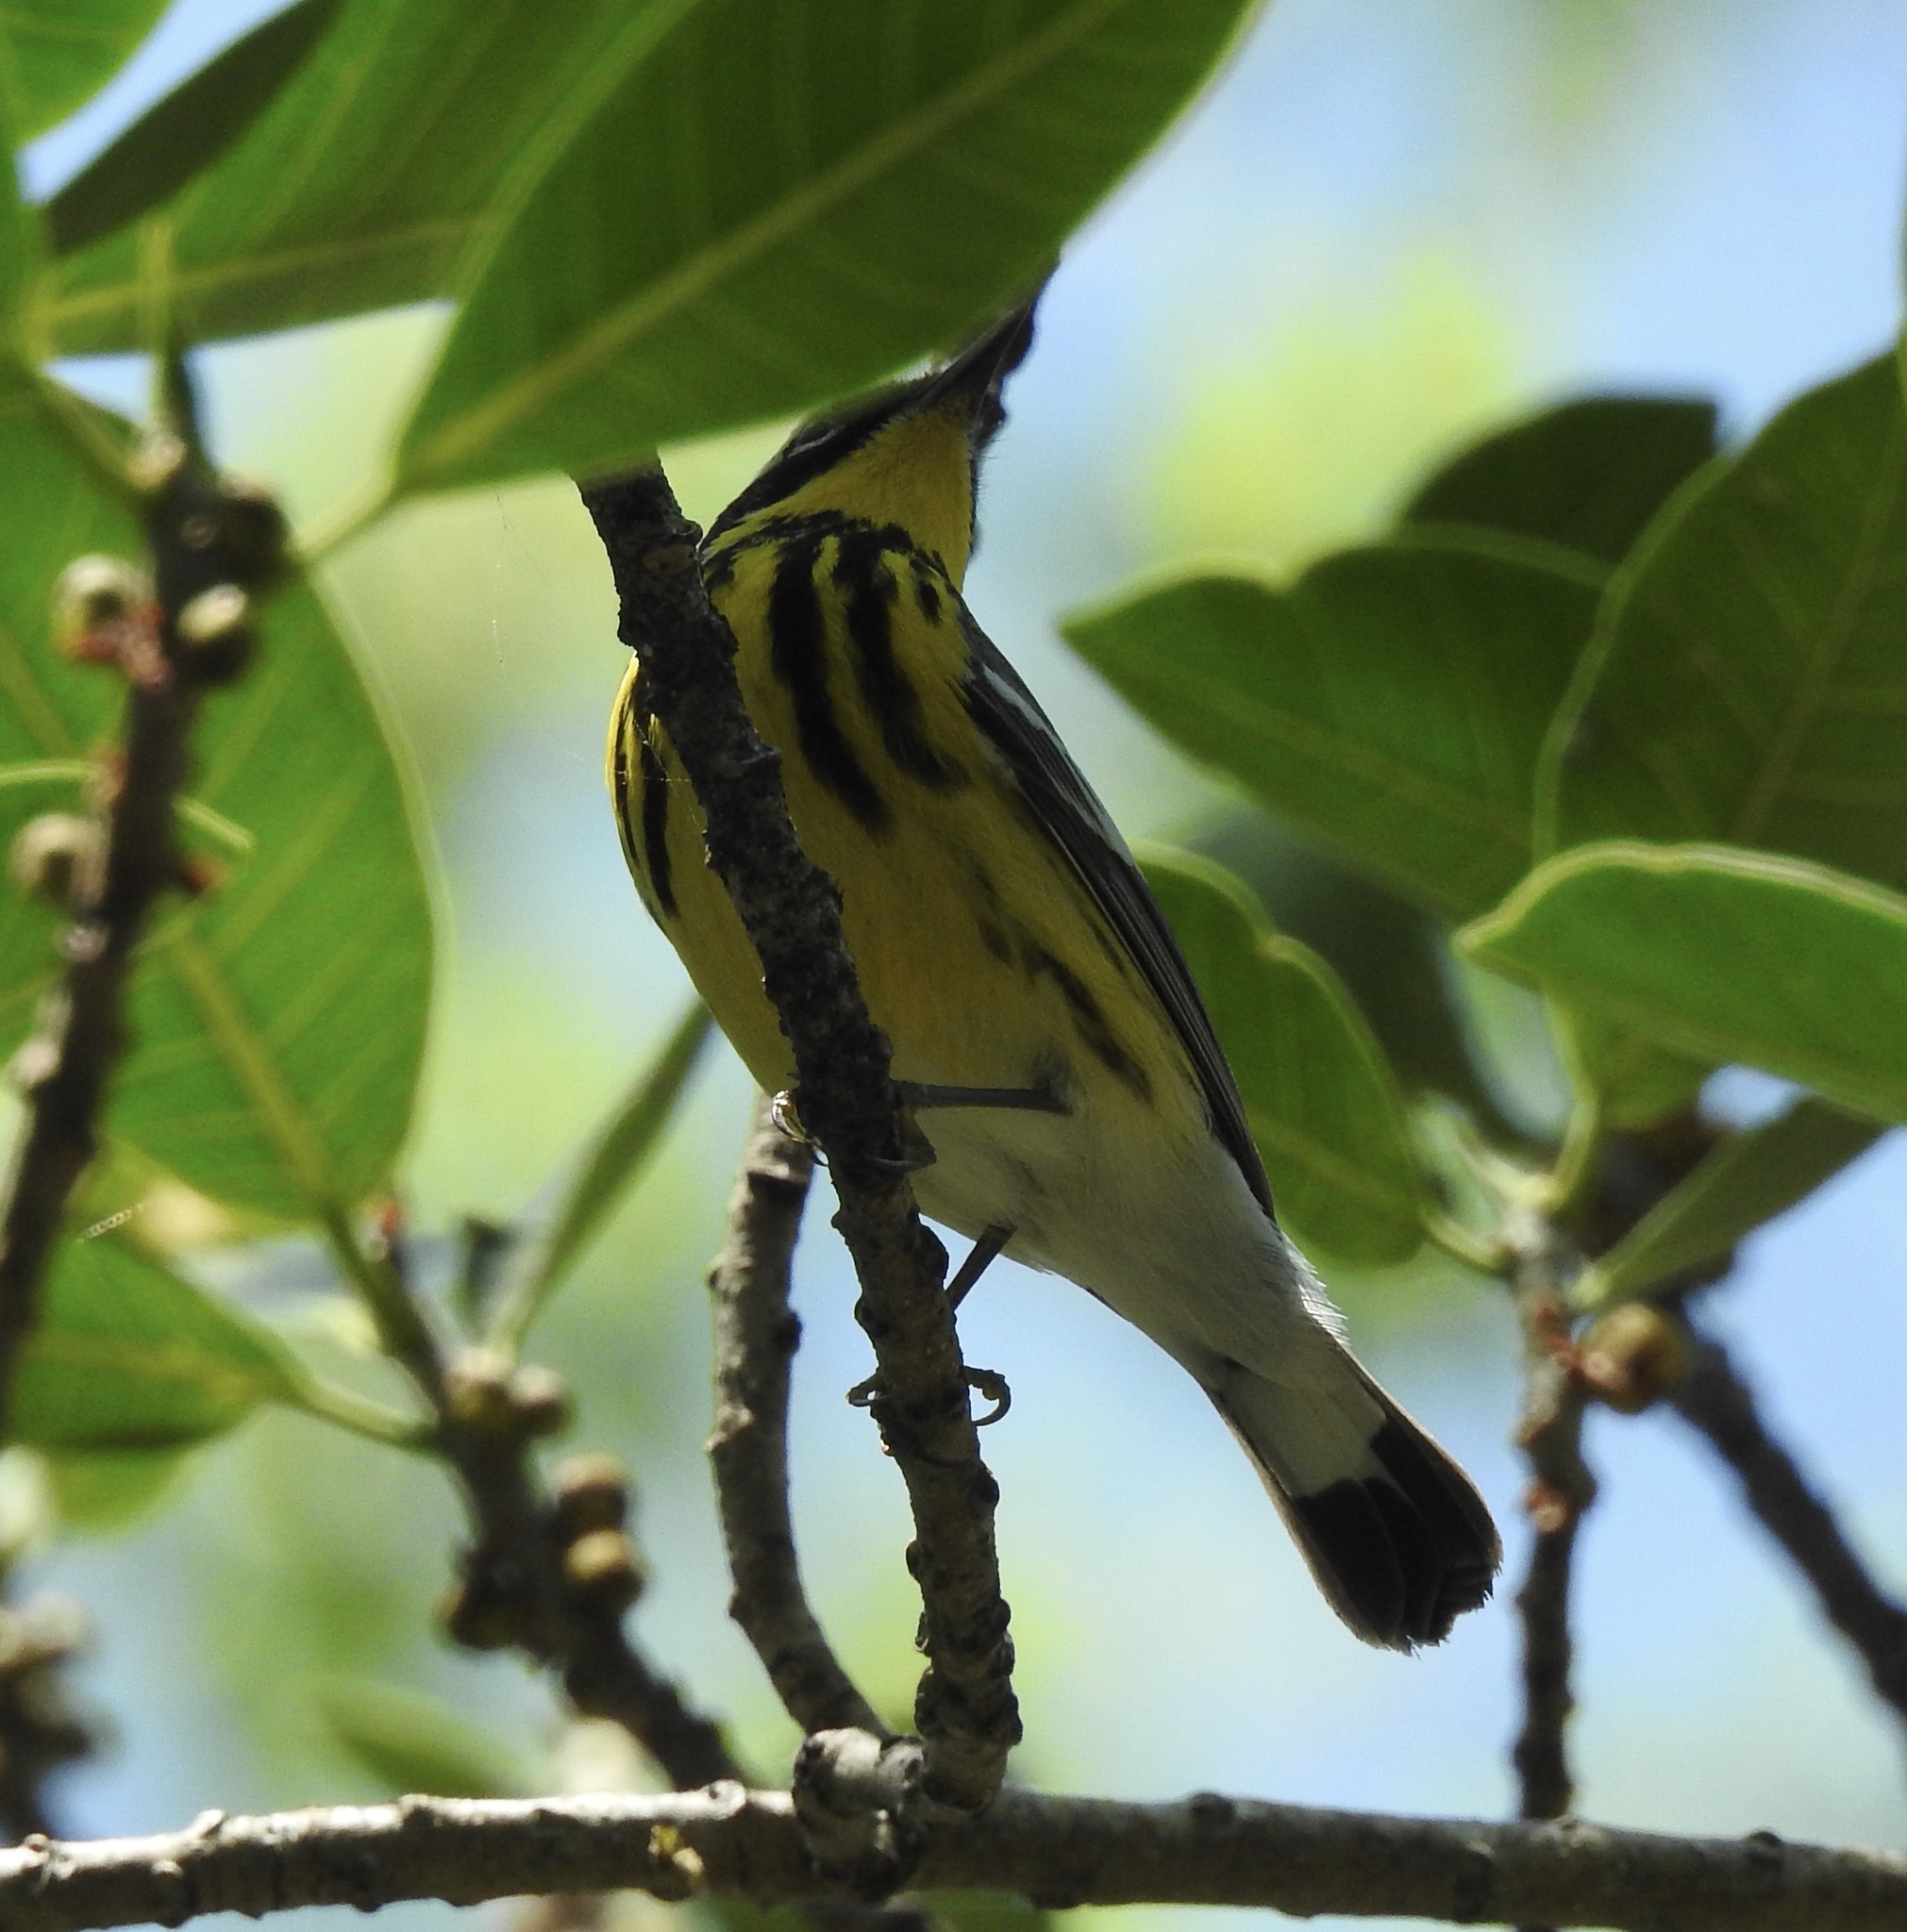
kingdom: Animalia
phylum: Chordata
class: Aves
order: Passeriformes
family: Parulidae
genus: Setophaga
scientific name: Setophaga magnolia
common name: Magnolia warbler
